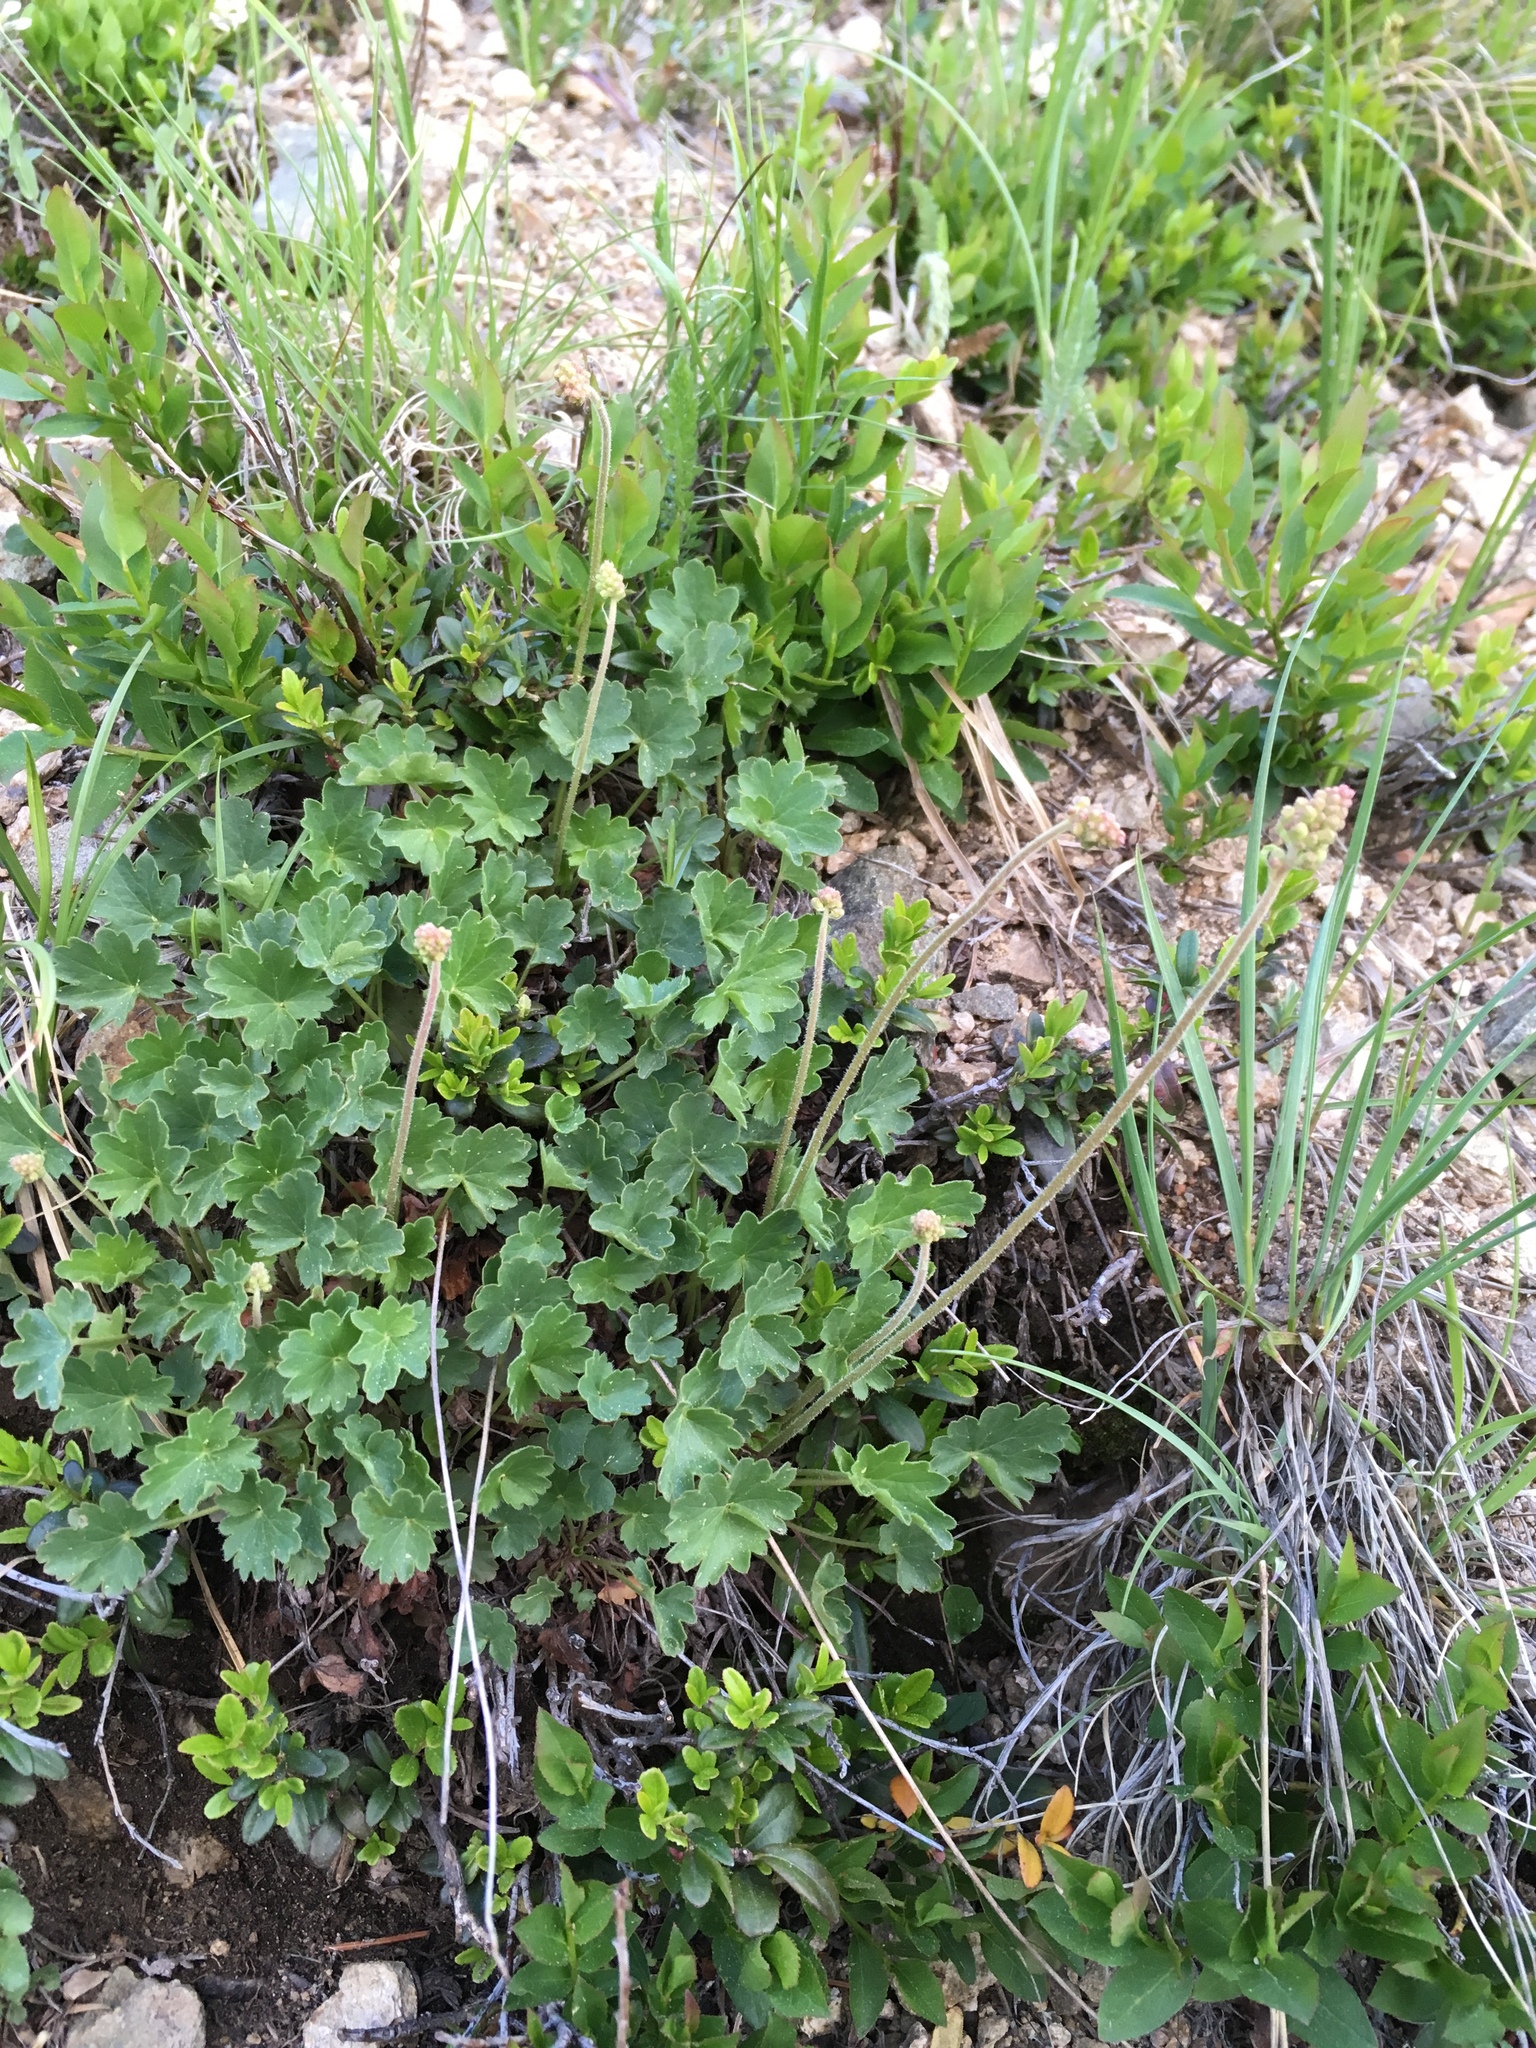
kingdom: Plantae
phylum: Tracheophyta
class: Magnoliopsida
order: Saxifragales
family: Saxifragaceae
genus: Heuchera
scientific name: Heuchera parvifolia
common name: Common alumroot
